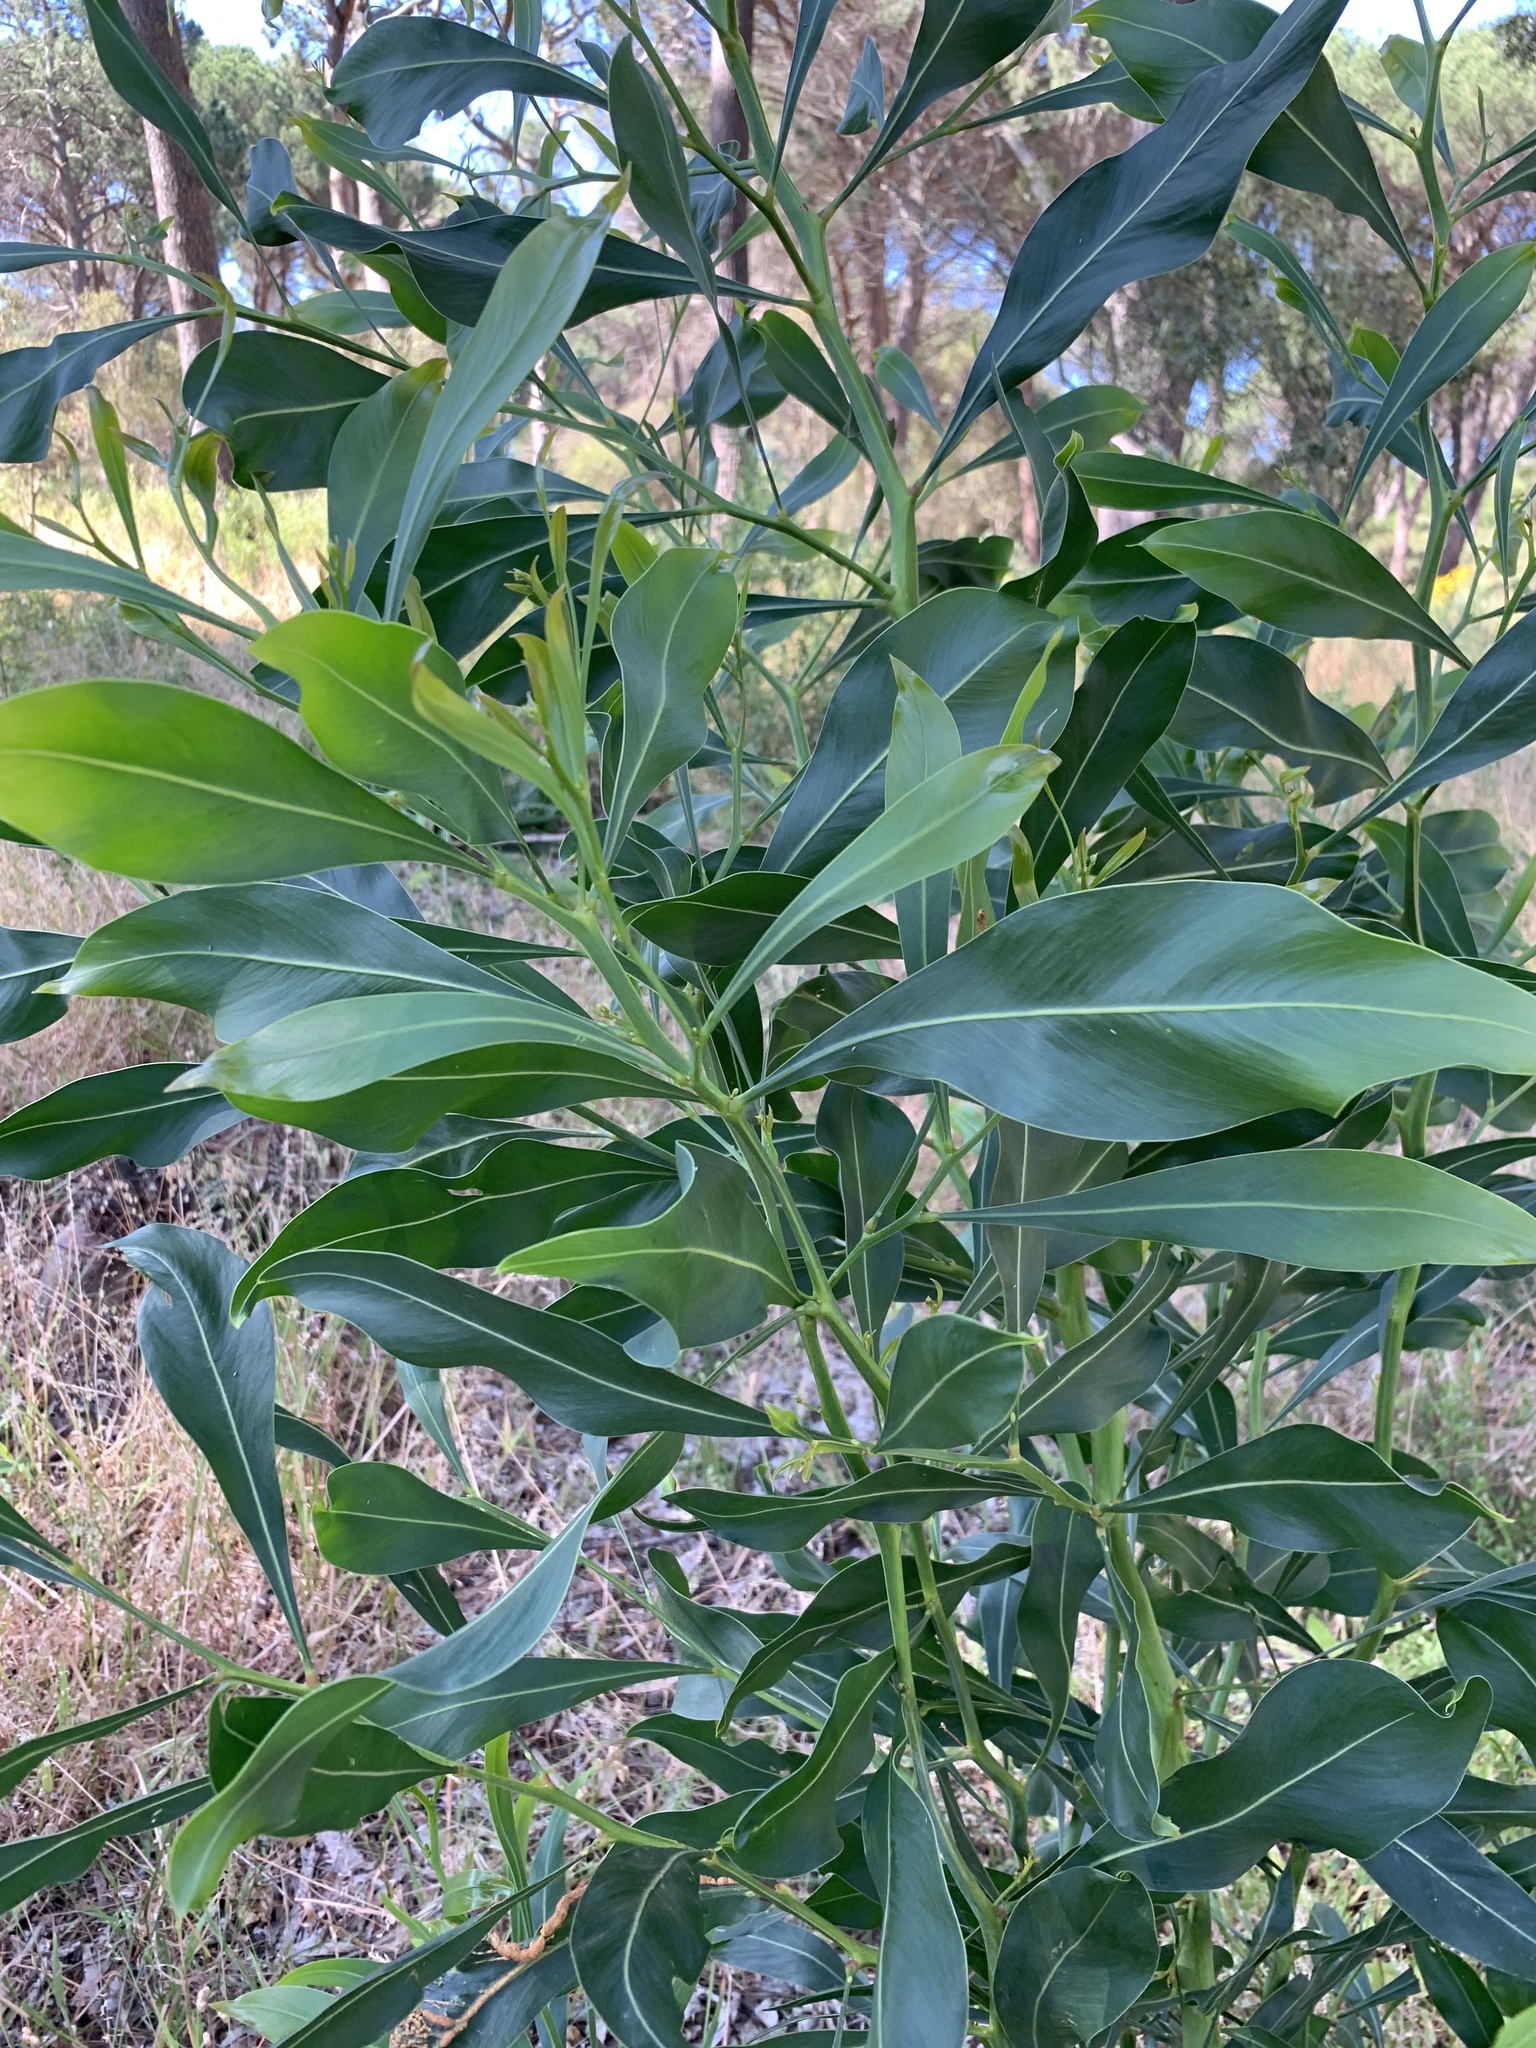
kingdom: Plantae
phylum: Tracheophyta
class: Magnoliopsida
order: Fabales
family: Fabaceae
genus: Acacia
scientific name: Acacia saligna
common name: Orange wattle
